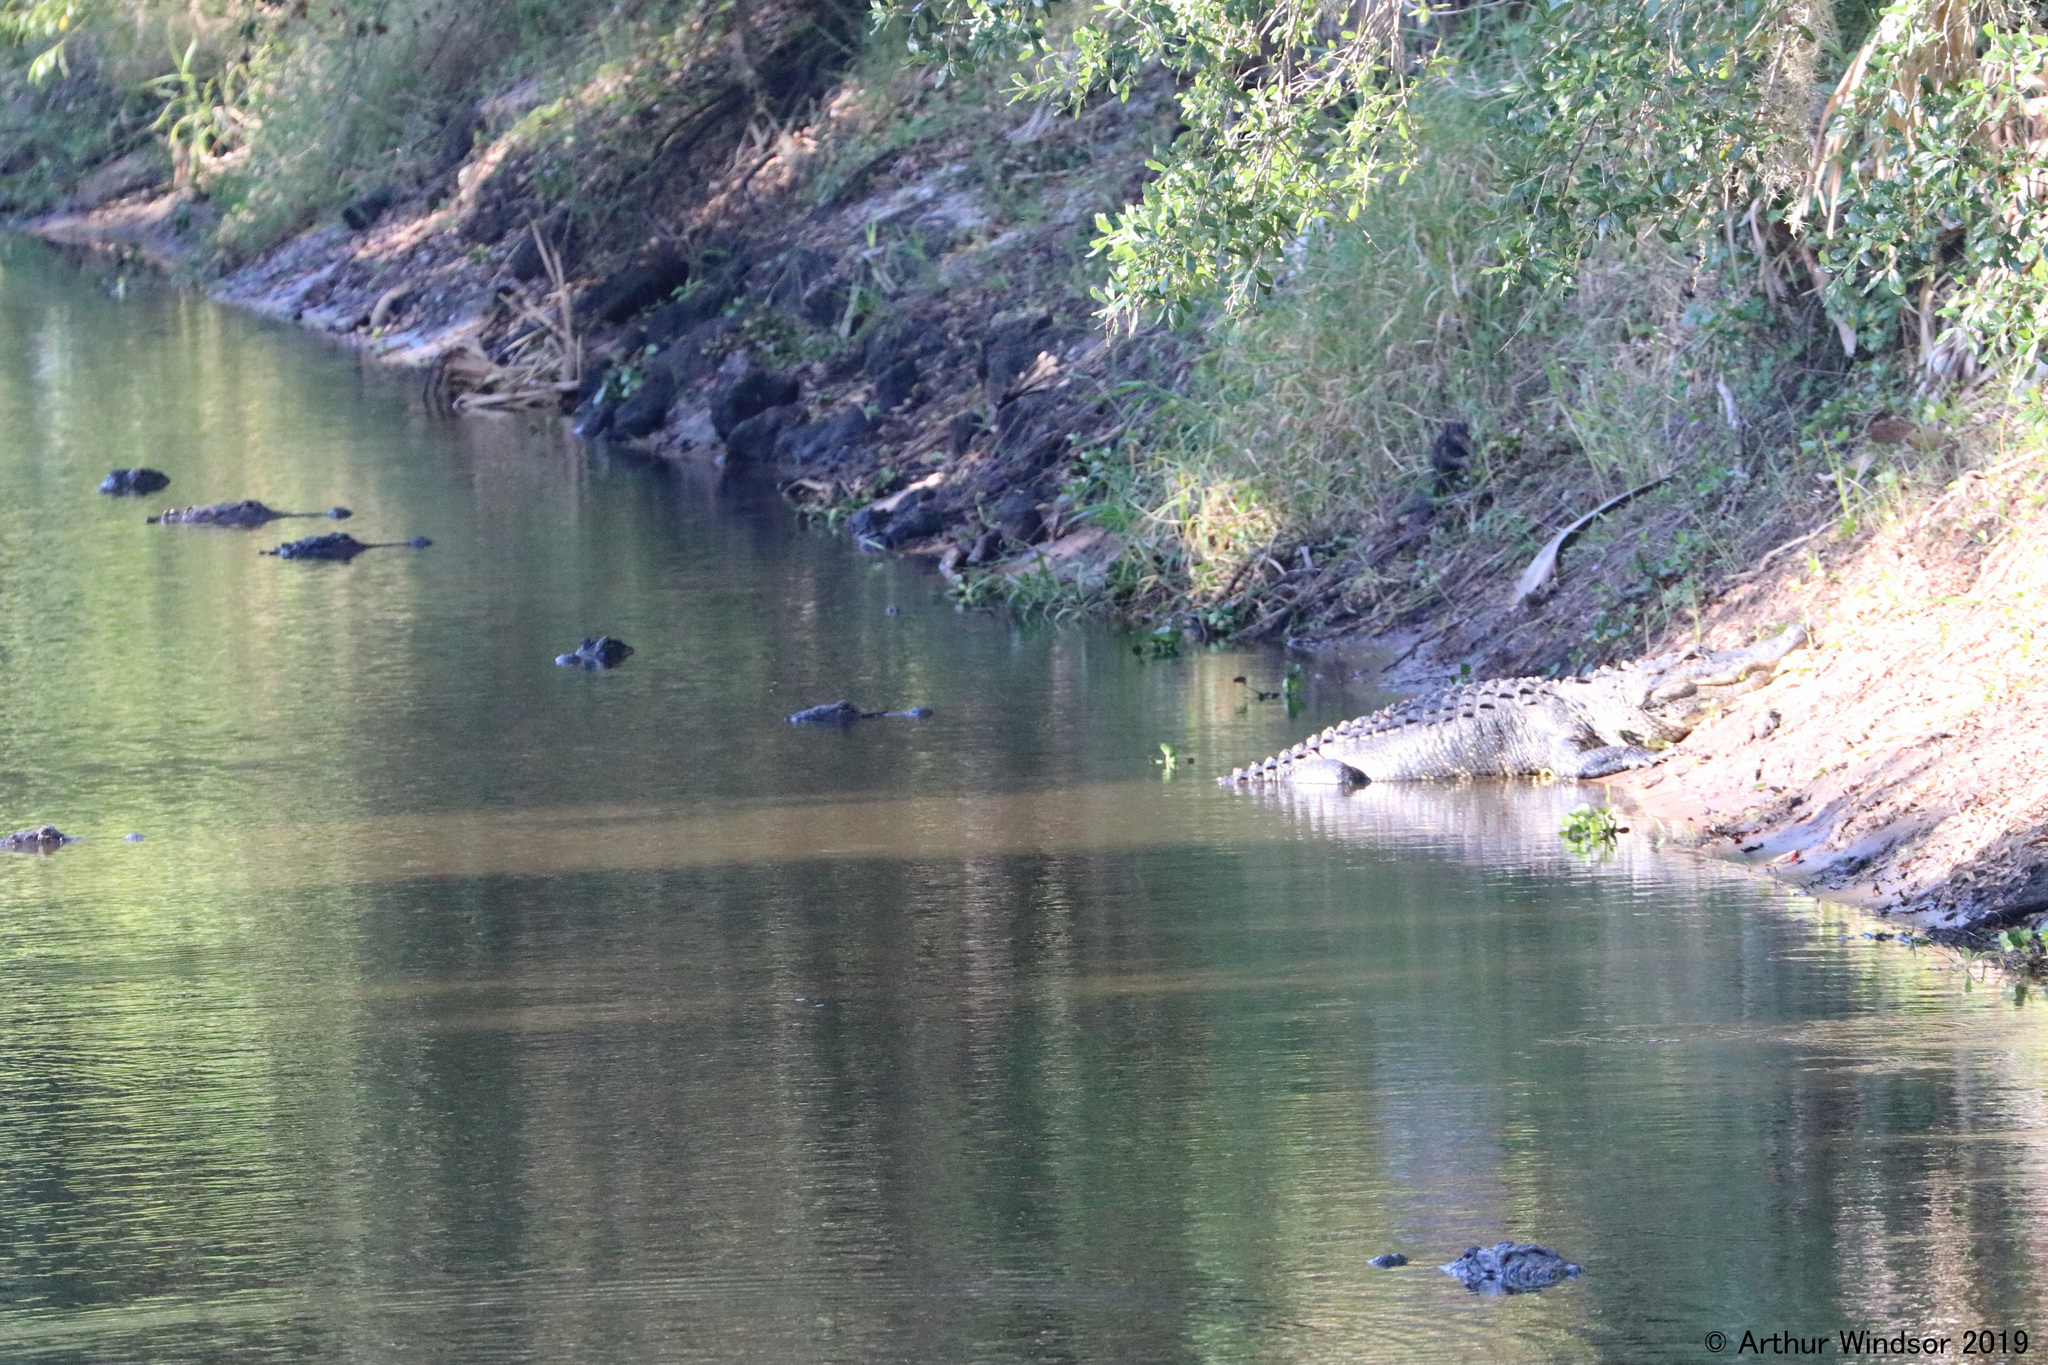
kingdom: Animalia
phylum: Chordata
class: Crocodylia
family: Alligatoridae
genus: Alligator
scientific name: Alligator mississippiensis
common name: American alligator
